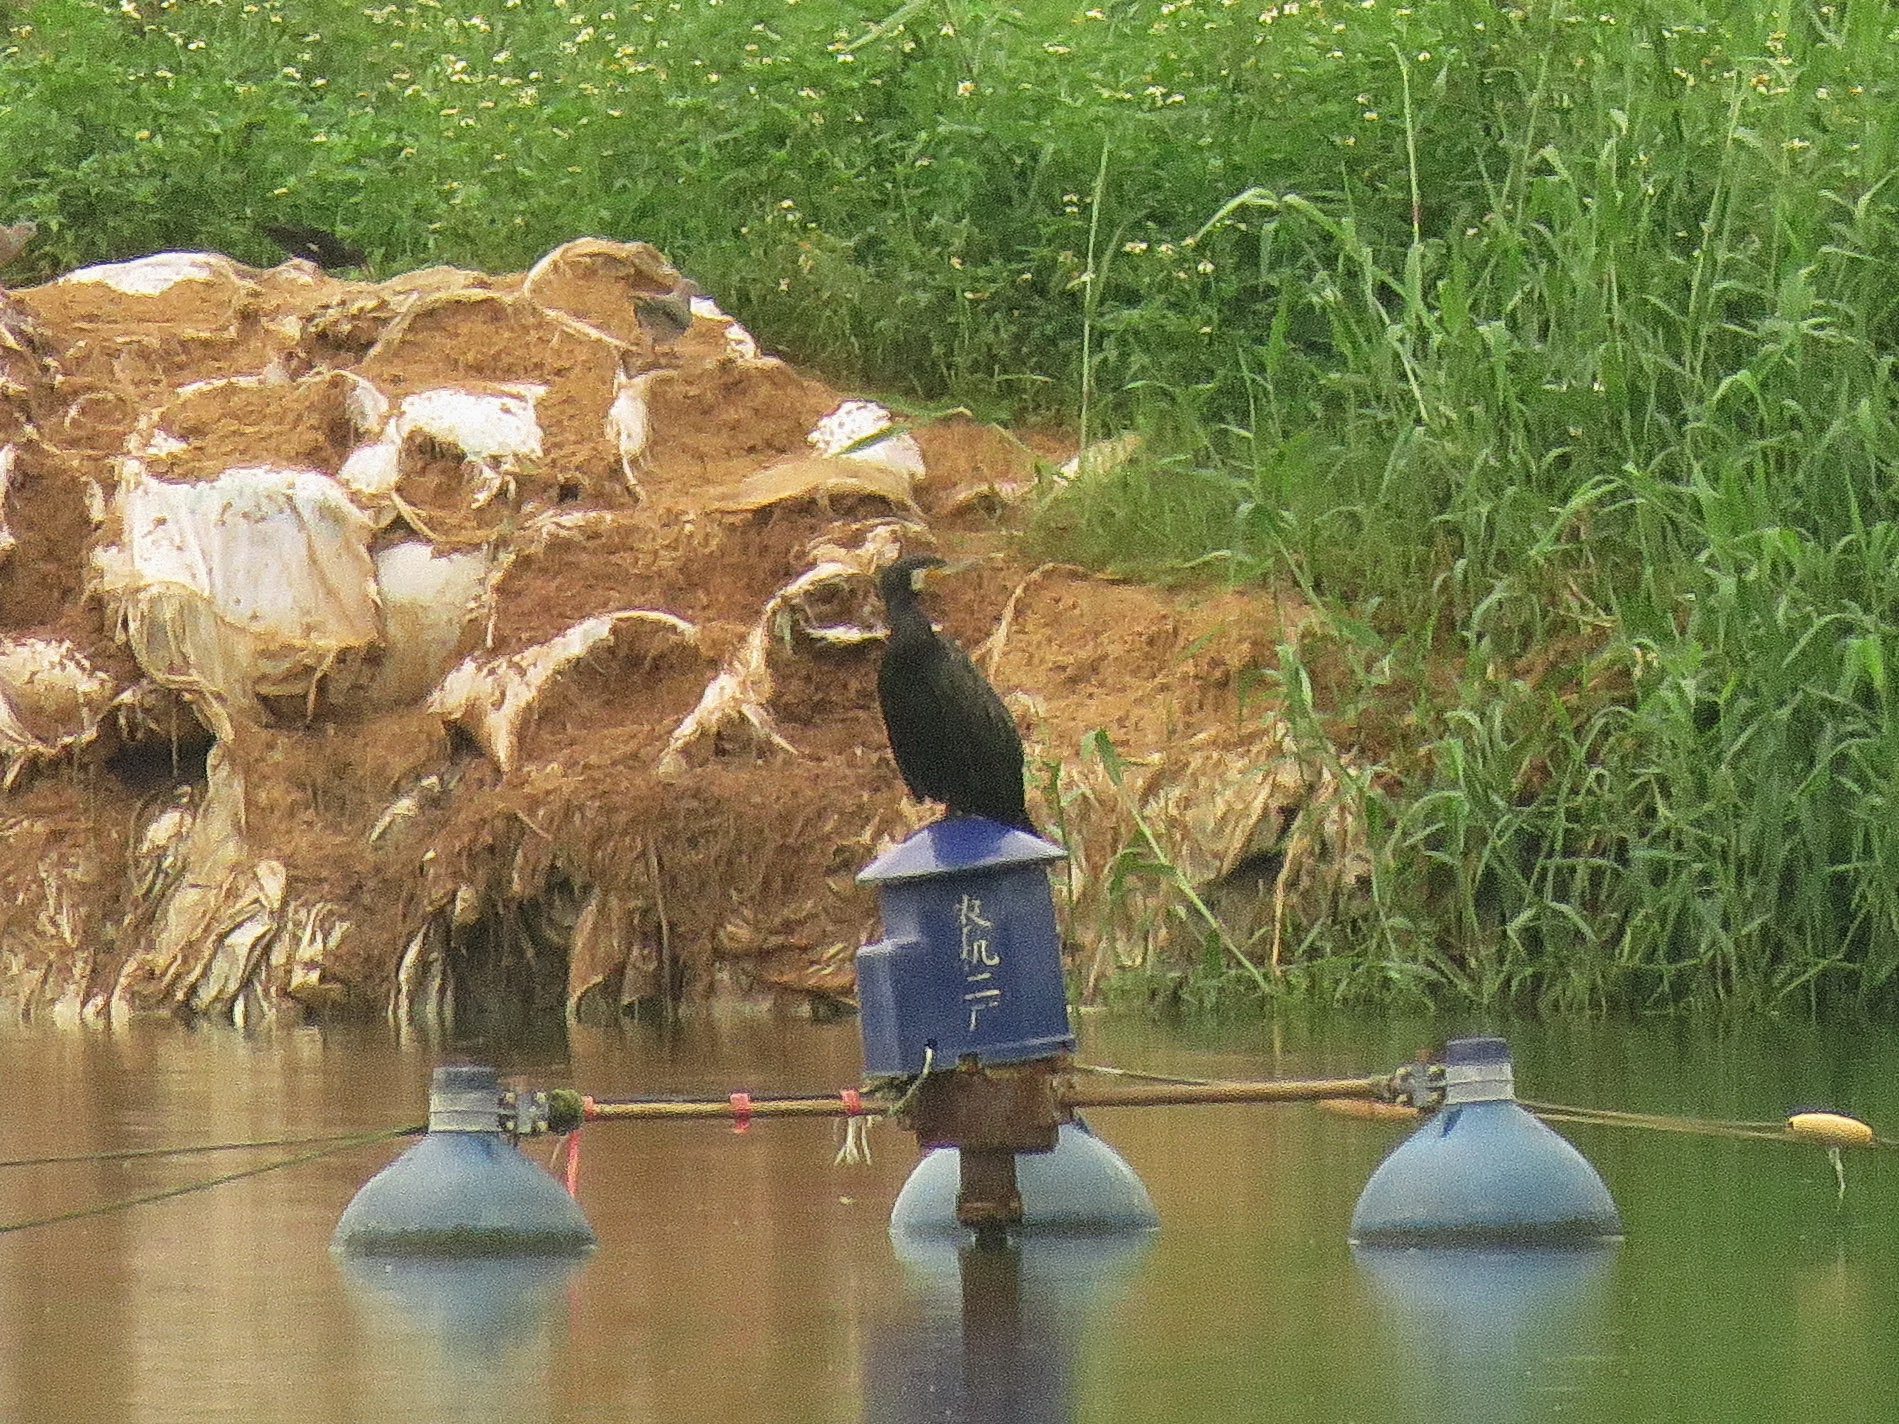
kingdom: Animalia
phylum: Chordata
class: Aves
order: Suliformes
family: Phalacrocoracidae
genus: Phalacrocorax
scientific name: Phalacrocorax carbo
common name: Great cormorant
